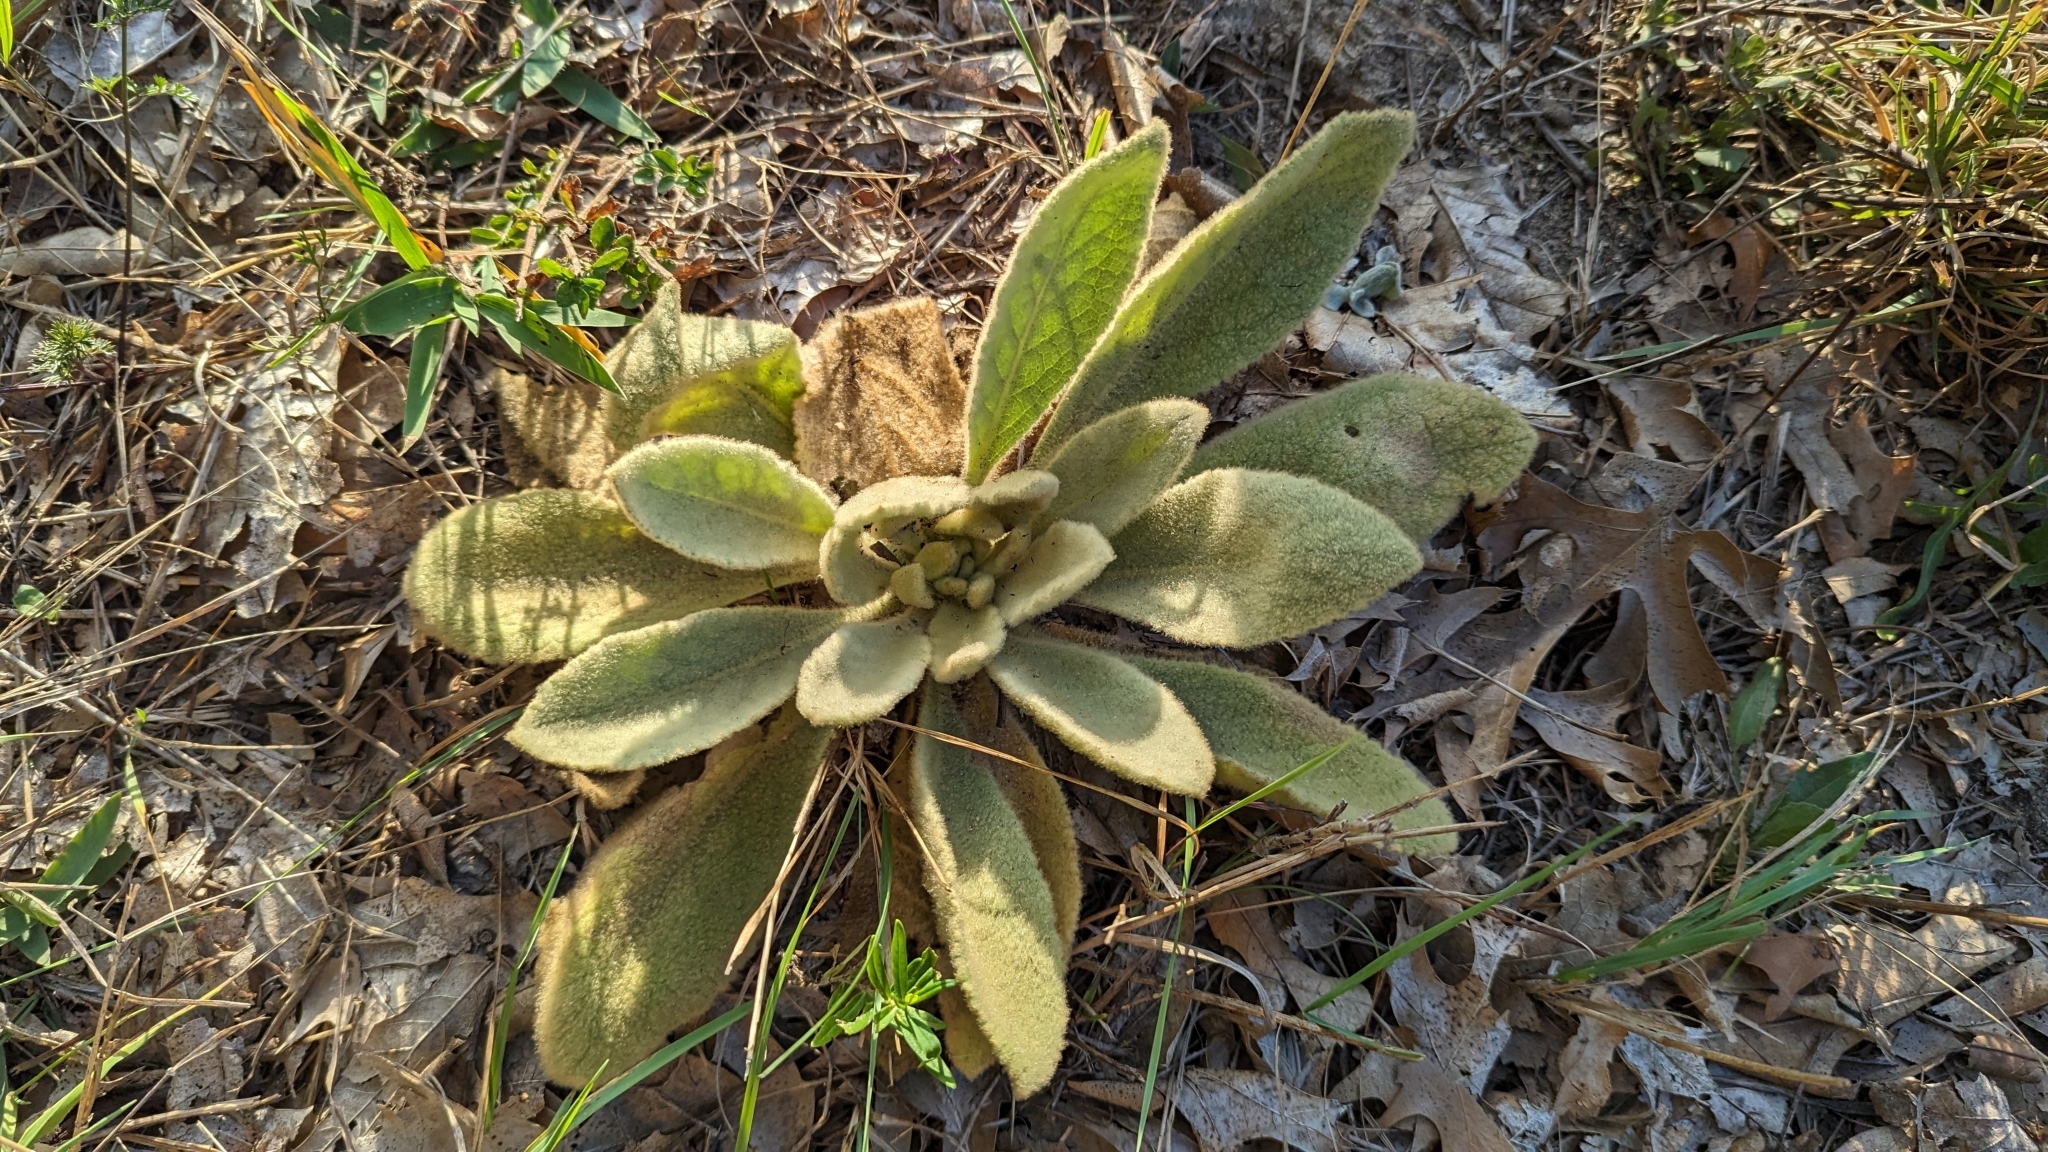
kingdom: Plantae
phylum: Tracheophyta
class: Magnoliopsida
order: Lamiales
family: Scrophulariaceae
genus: Verbascum
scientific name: Verbascum thapsus
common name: Common mullein
